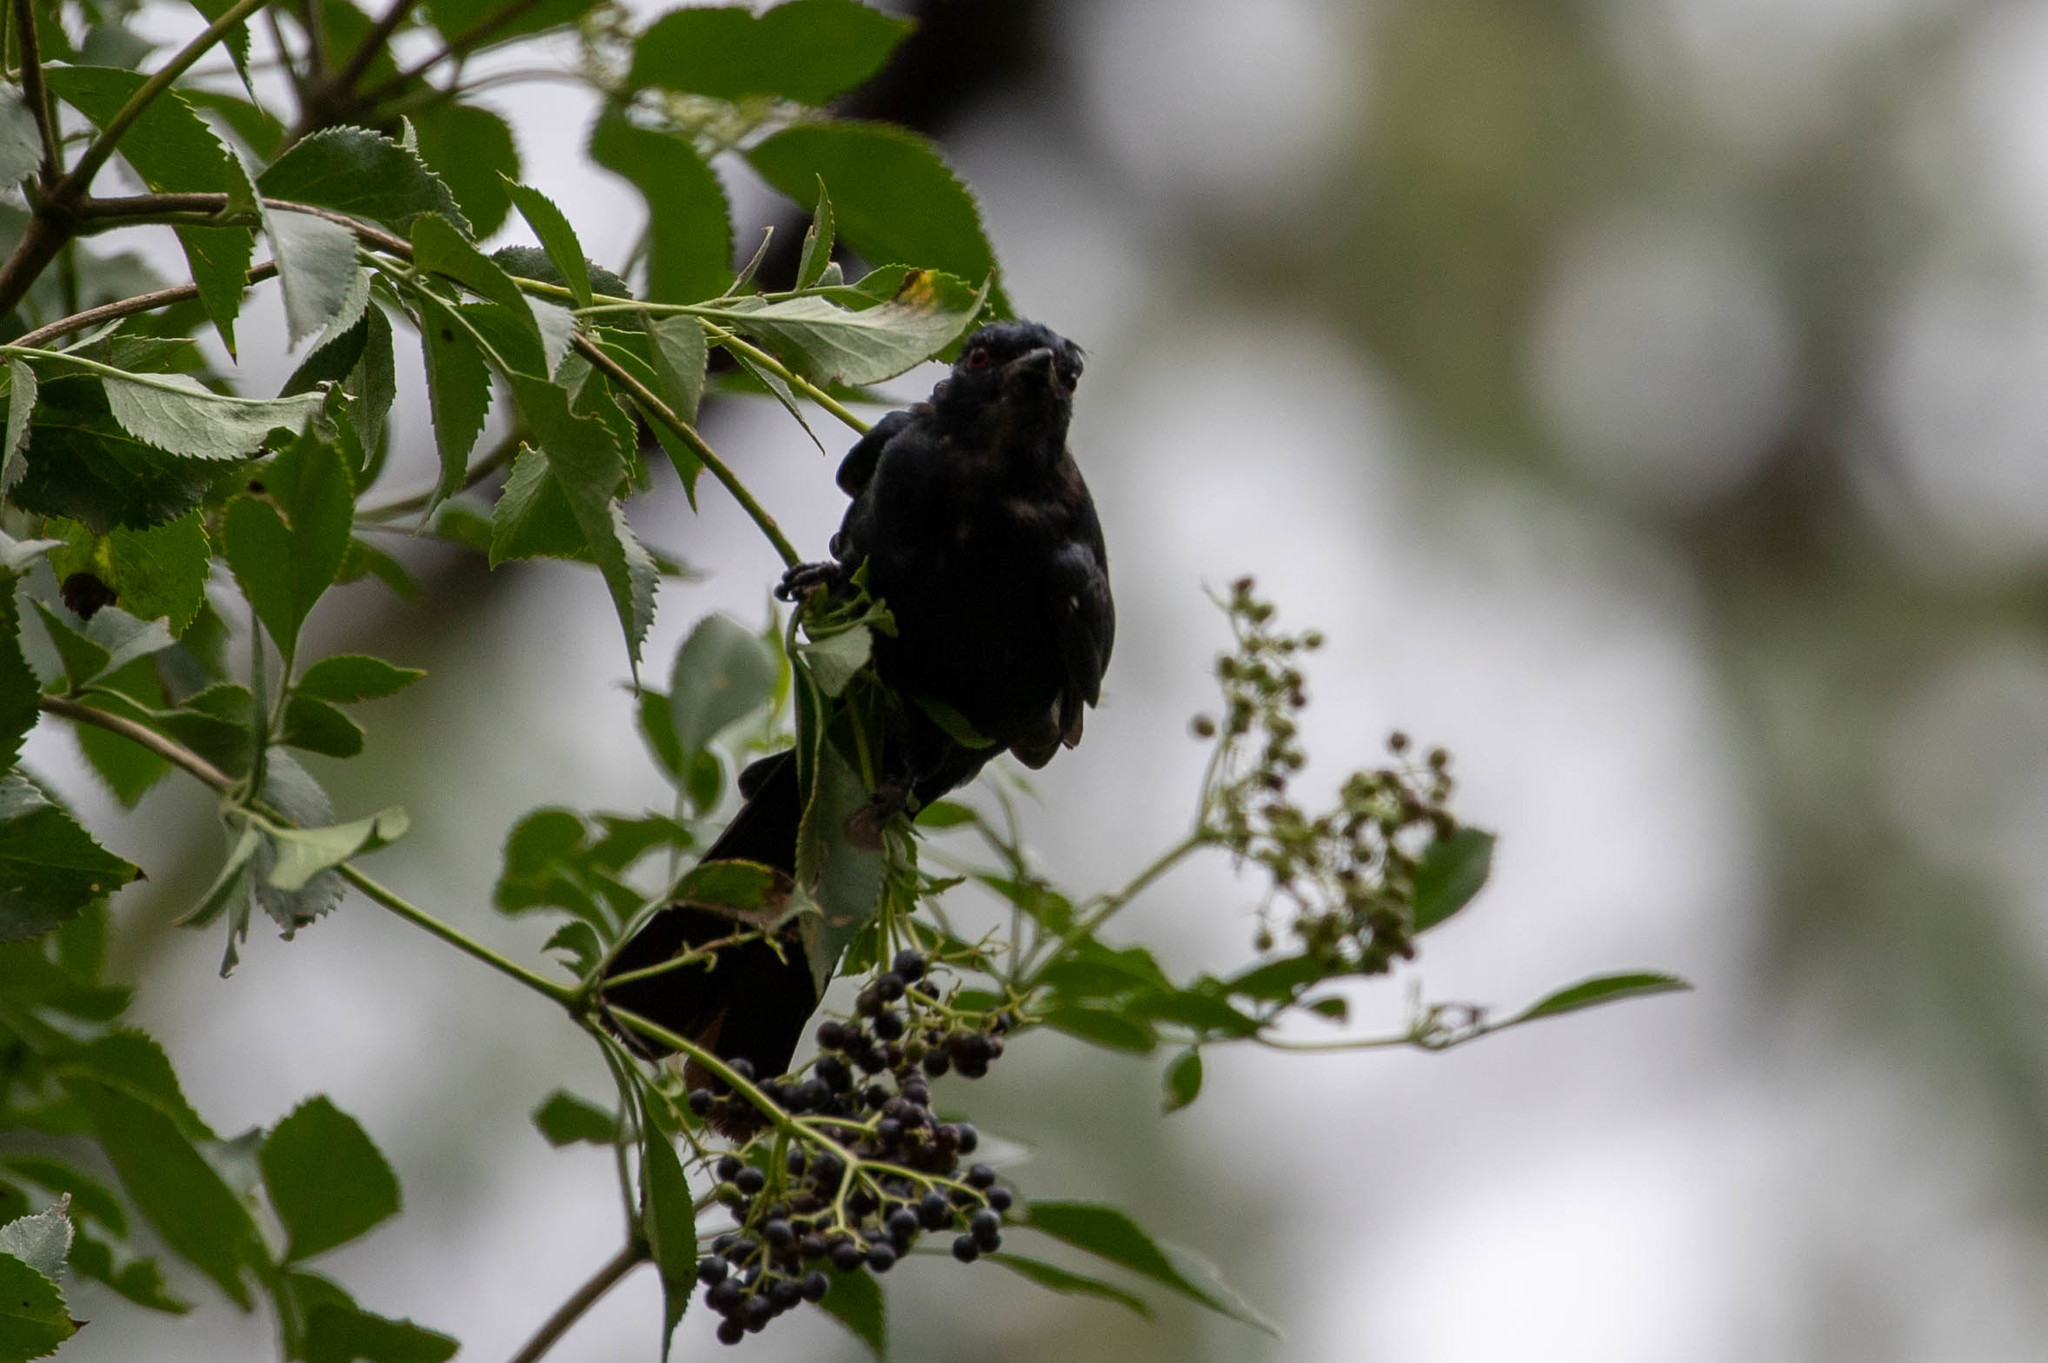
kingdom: Animalia
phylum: Chordata
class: Aves
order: Passeriformes
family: Ptilogonatidae
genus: Phainopepla
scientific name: Phainopepla nitens
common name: Phainopepla
